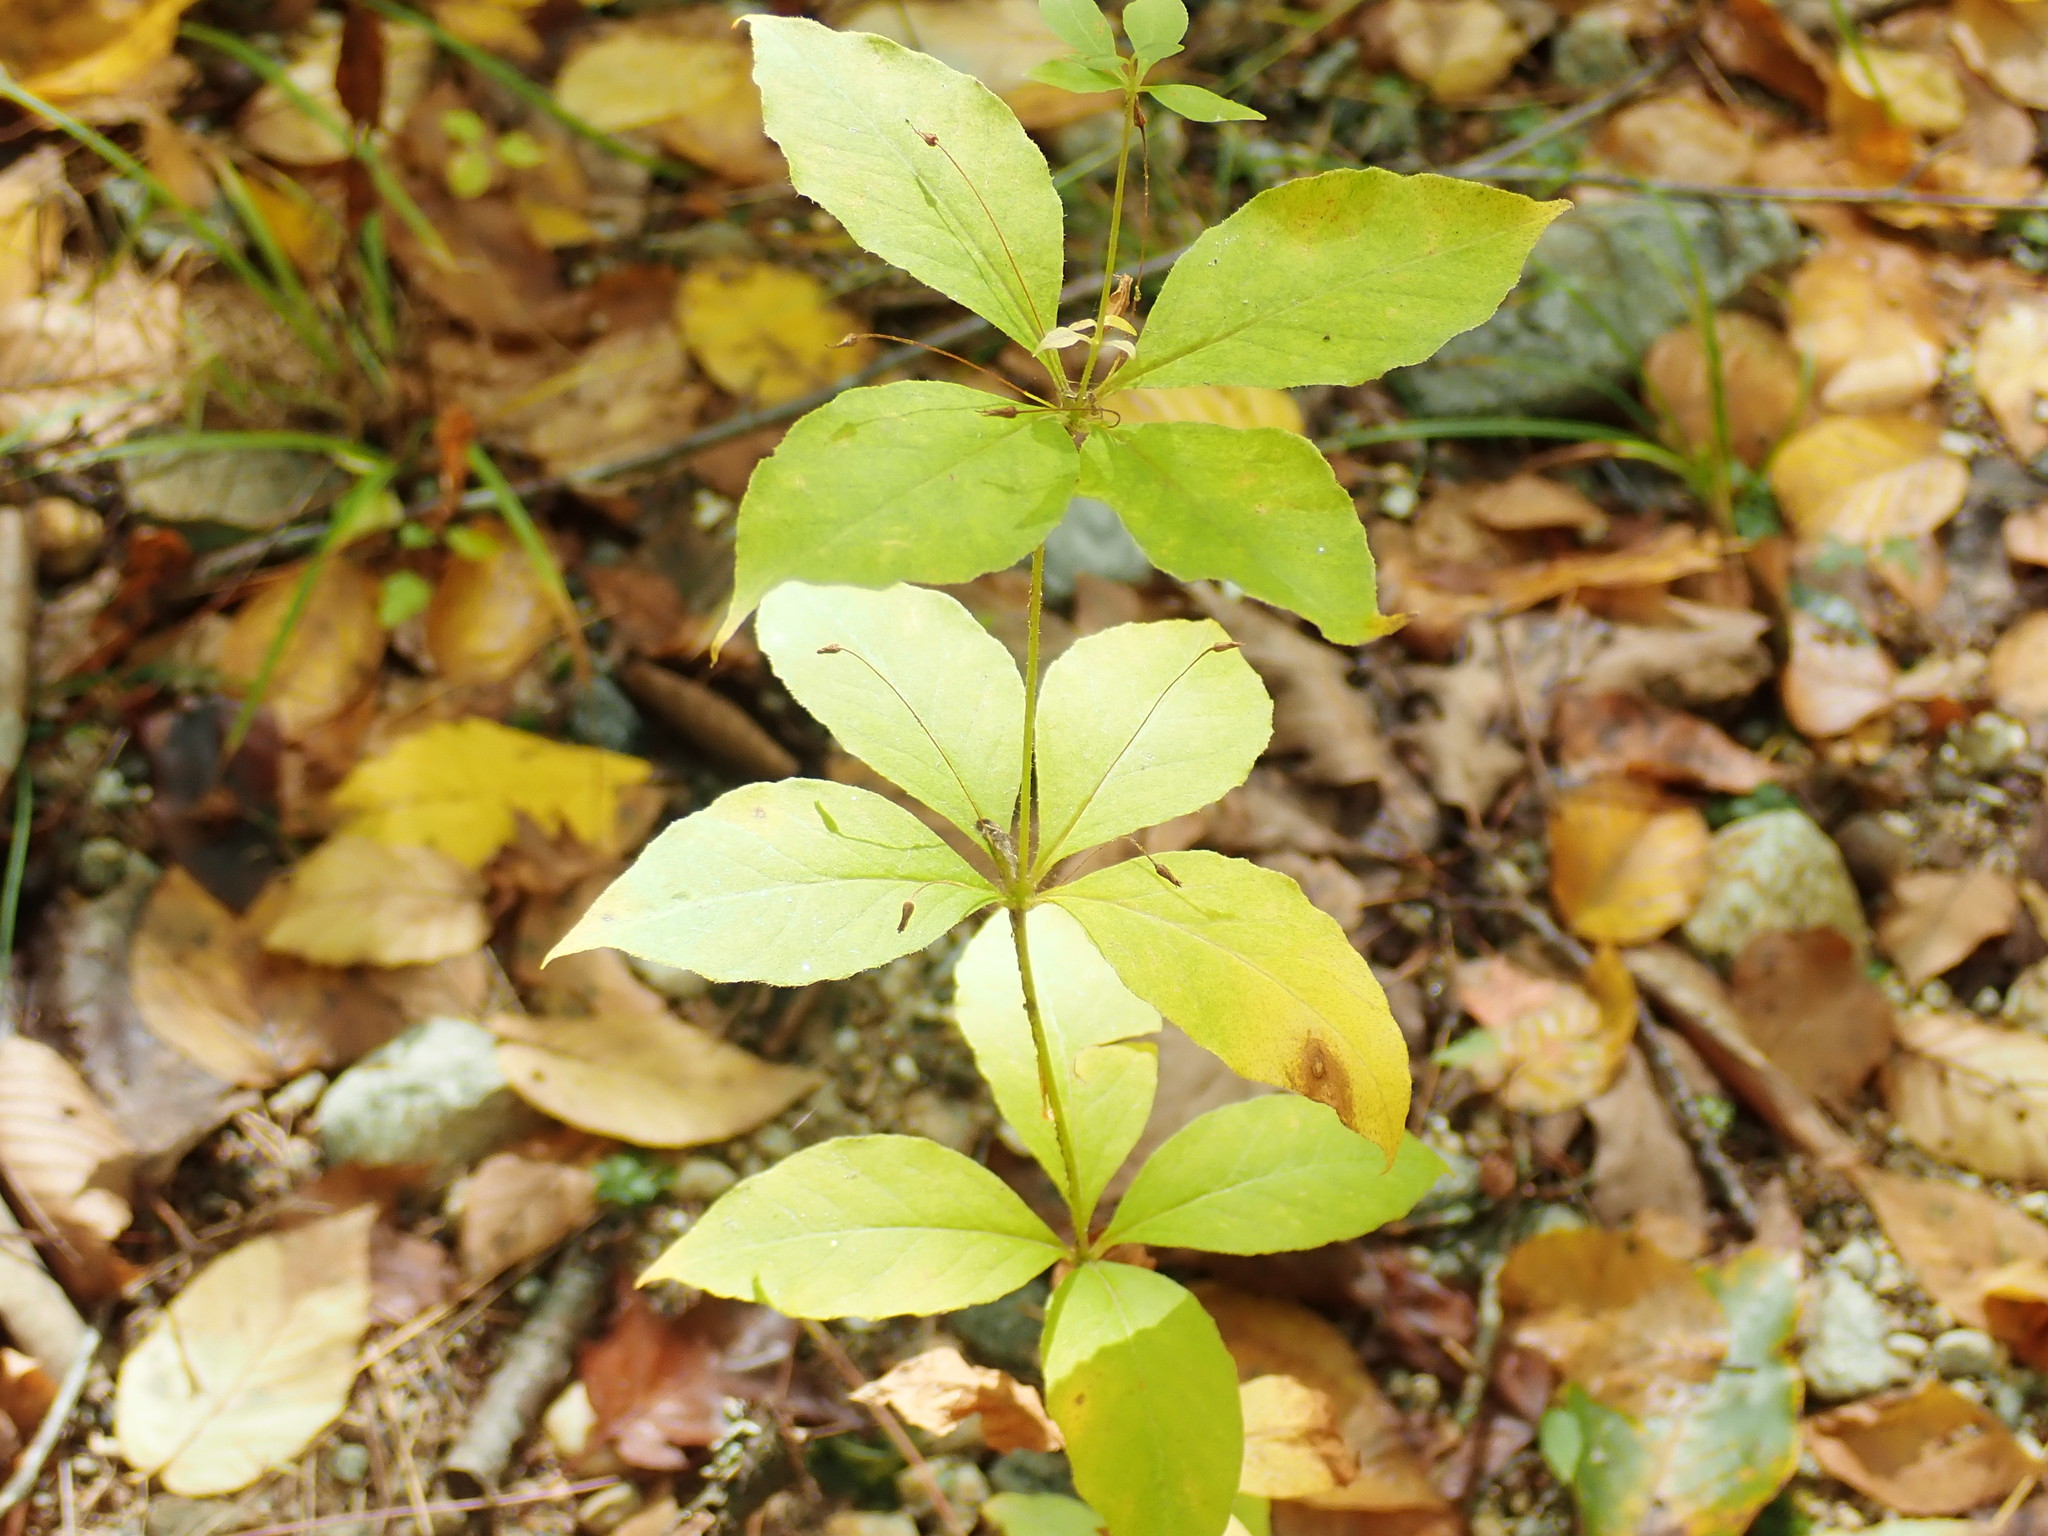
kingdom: Plantae
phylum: Tracheophyta
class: Magnoliopsida
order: Ericales
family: Primulaceae
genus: Lysimachia
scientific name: Lysimachia quadrifolia
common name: Whorled loosestrife
